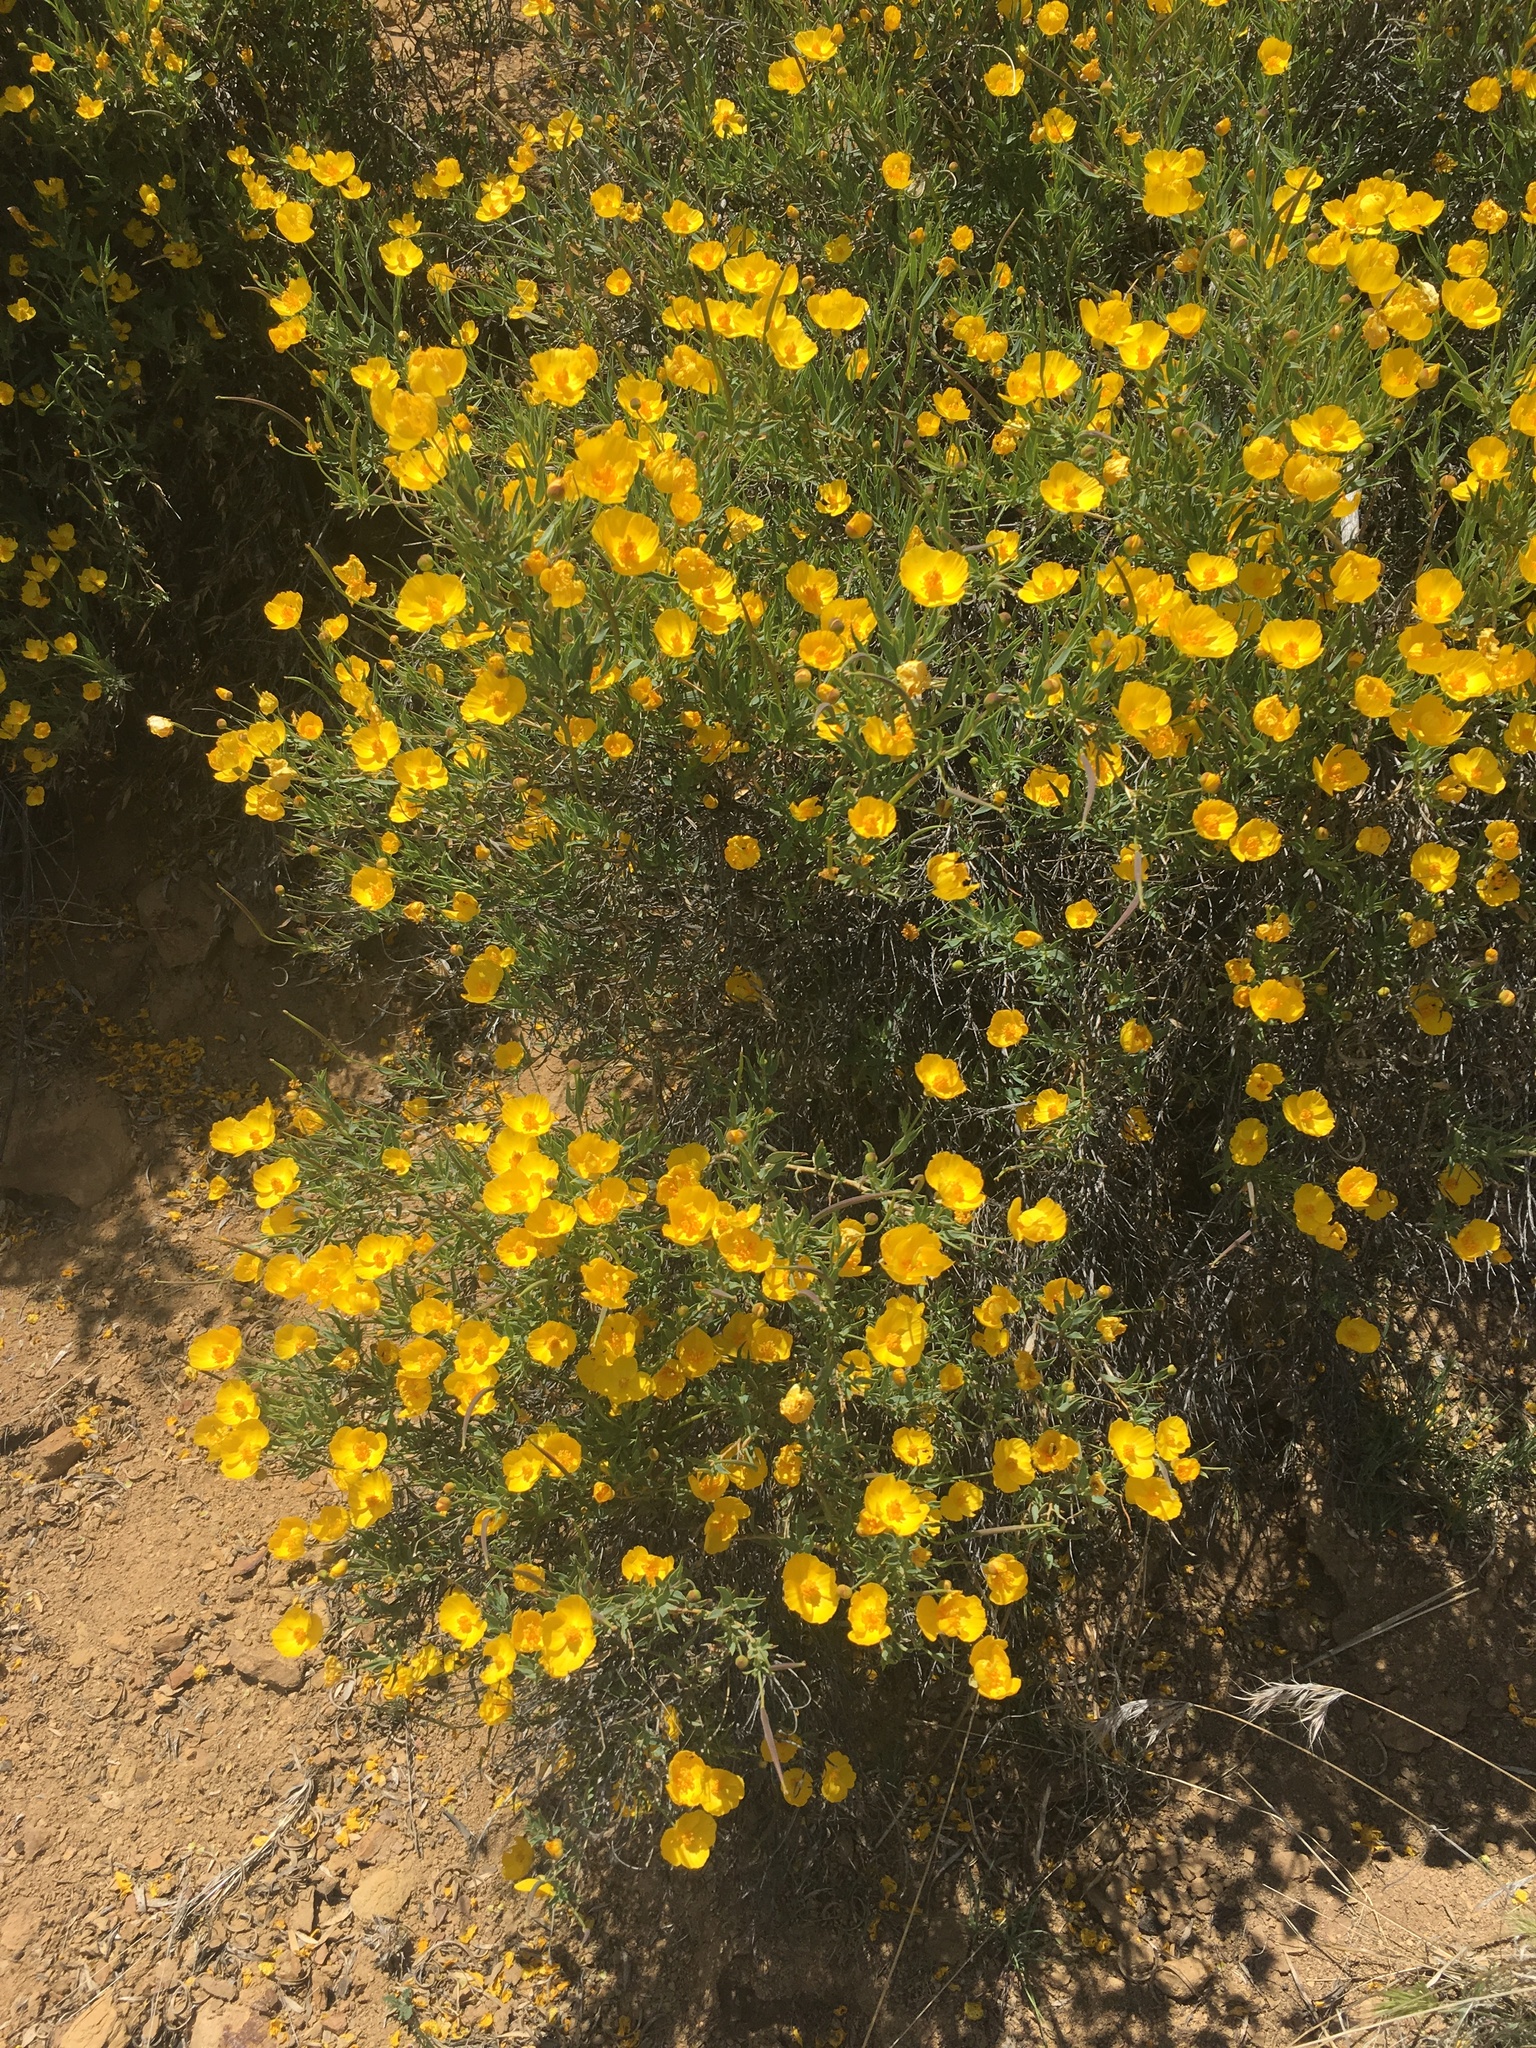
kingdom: Plantae
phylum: Tracheophyta
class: Magnoliopsida
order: Ranunculales
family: Papaveraceae
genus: Dendromecon
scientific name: Dendromecon rigida
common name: Tree poppy
